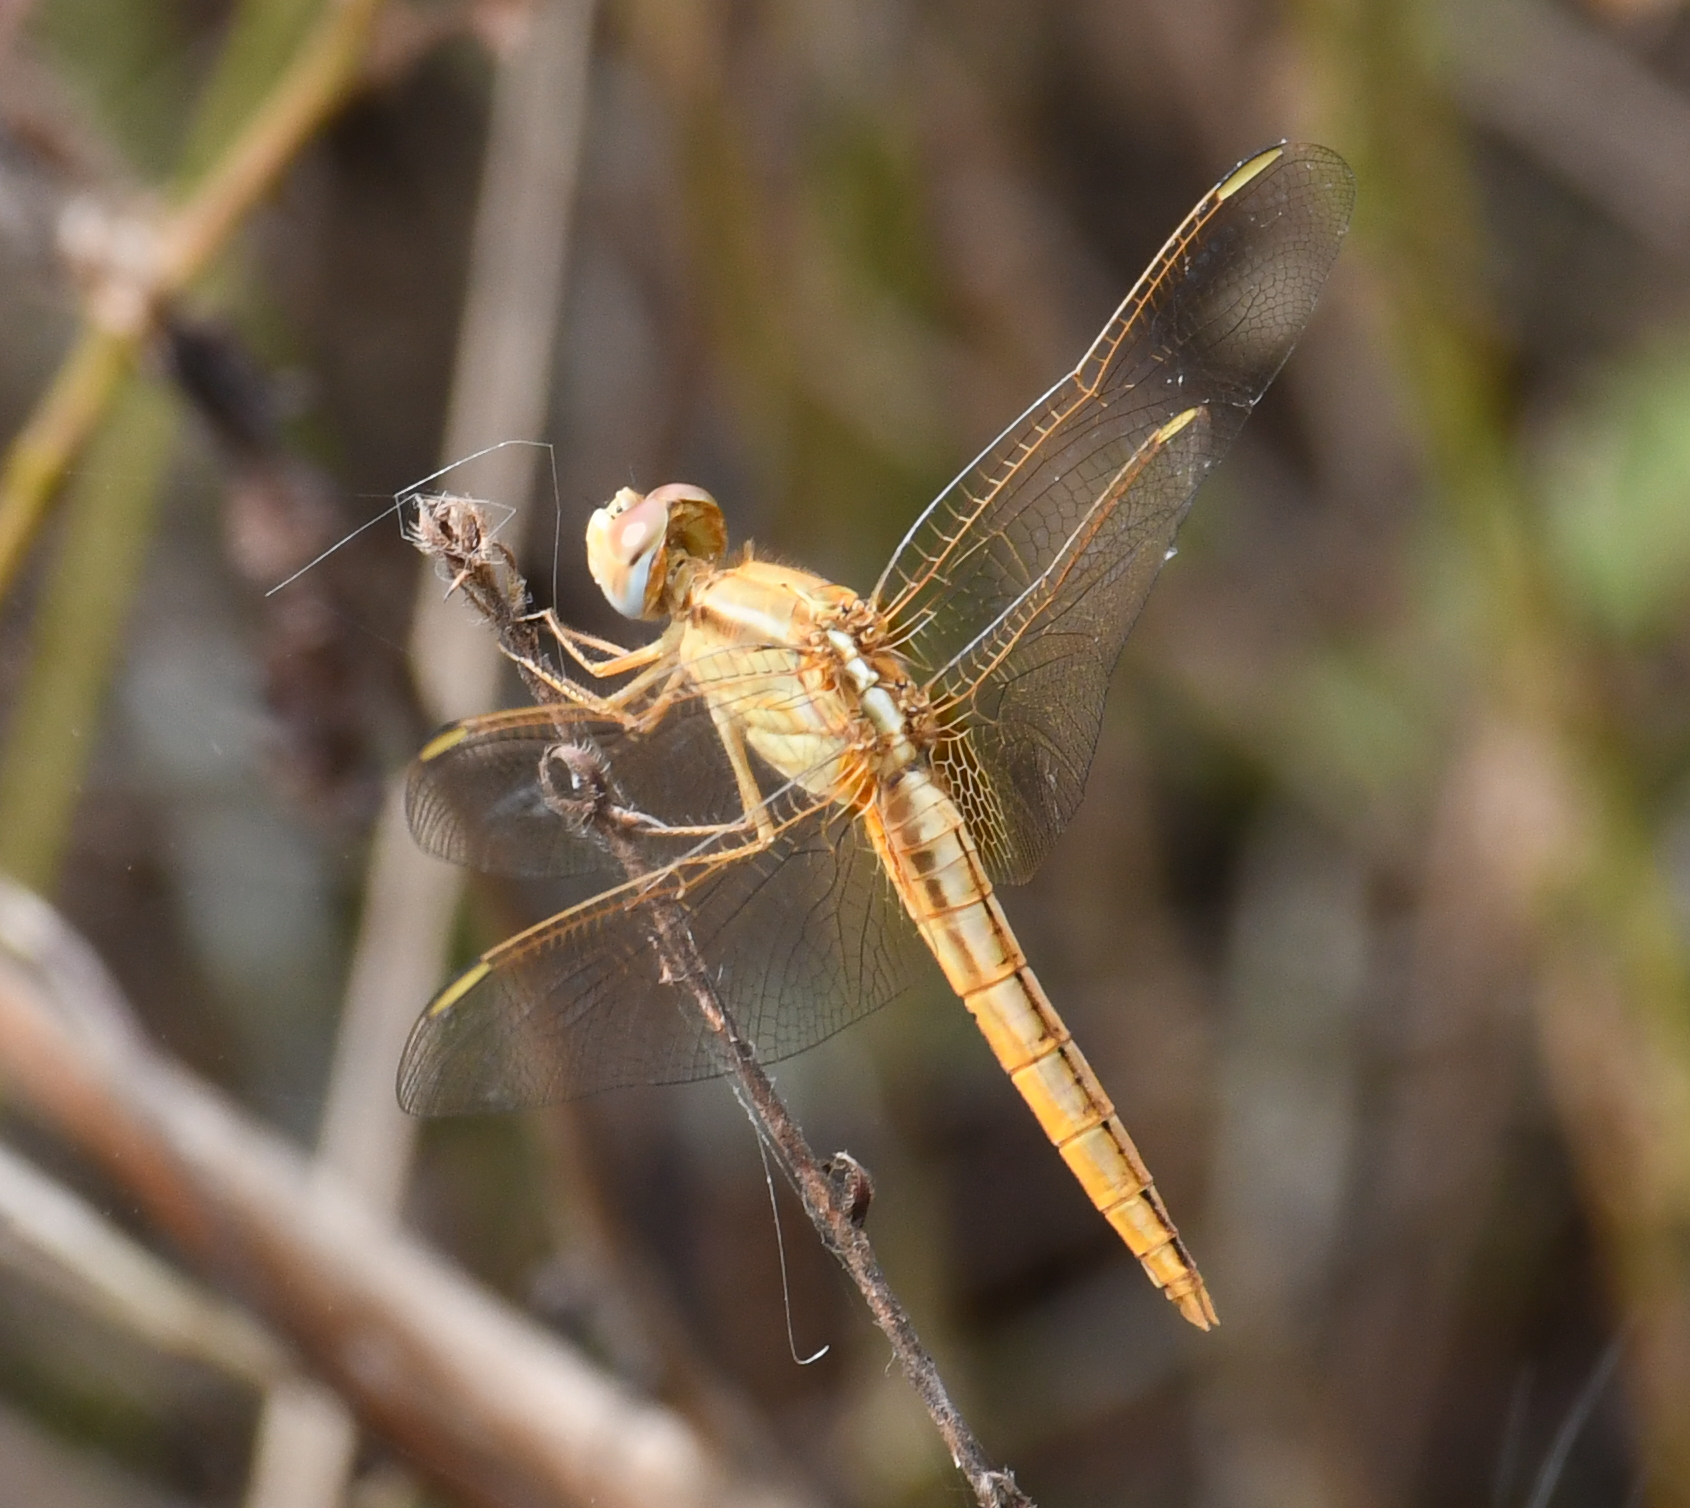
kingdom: Animalia
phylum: Arthropoda
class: Insecta
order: Odonata
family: Libellulidae
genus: Crocothemis
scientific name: Crocothemis erythraea
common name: Scarlet dragonfly
